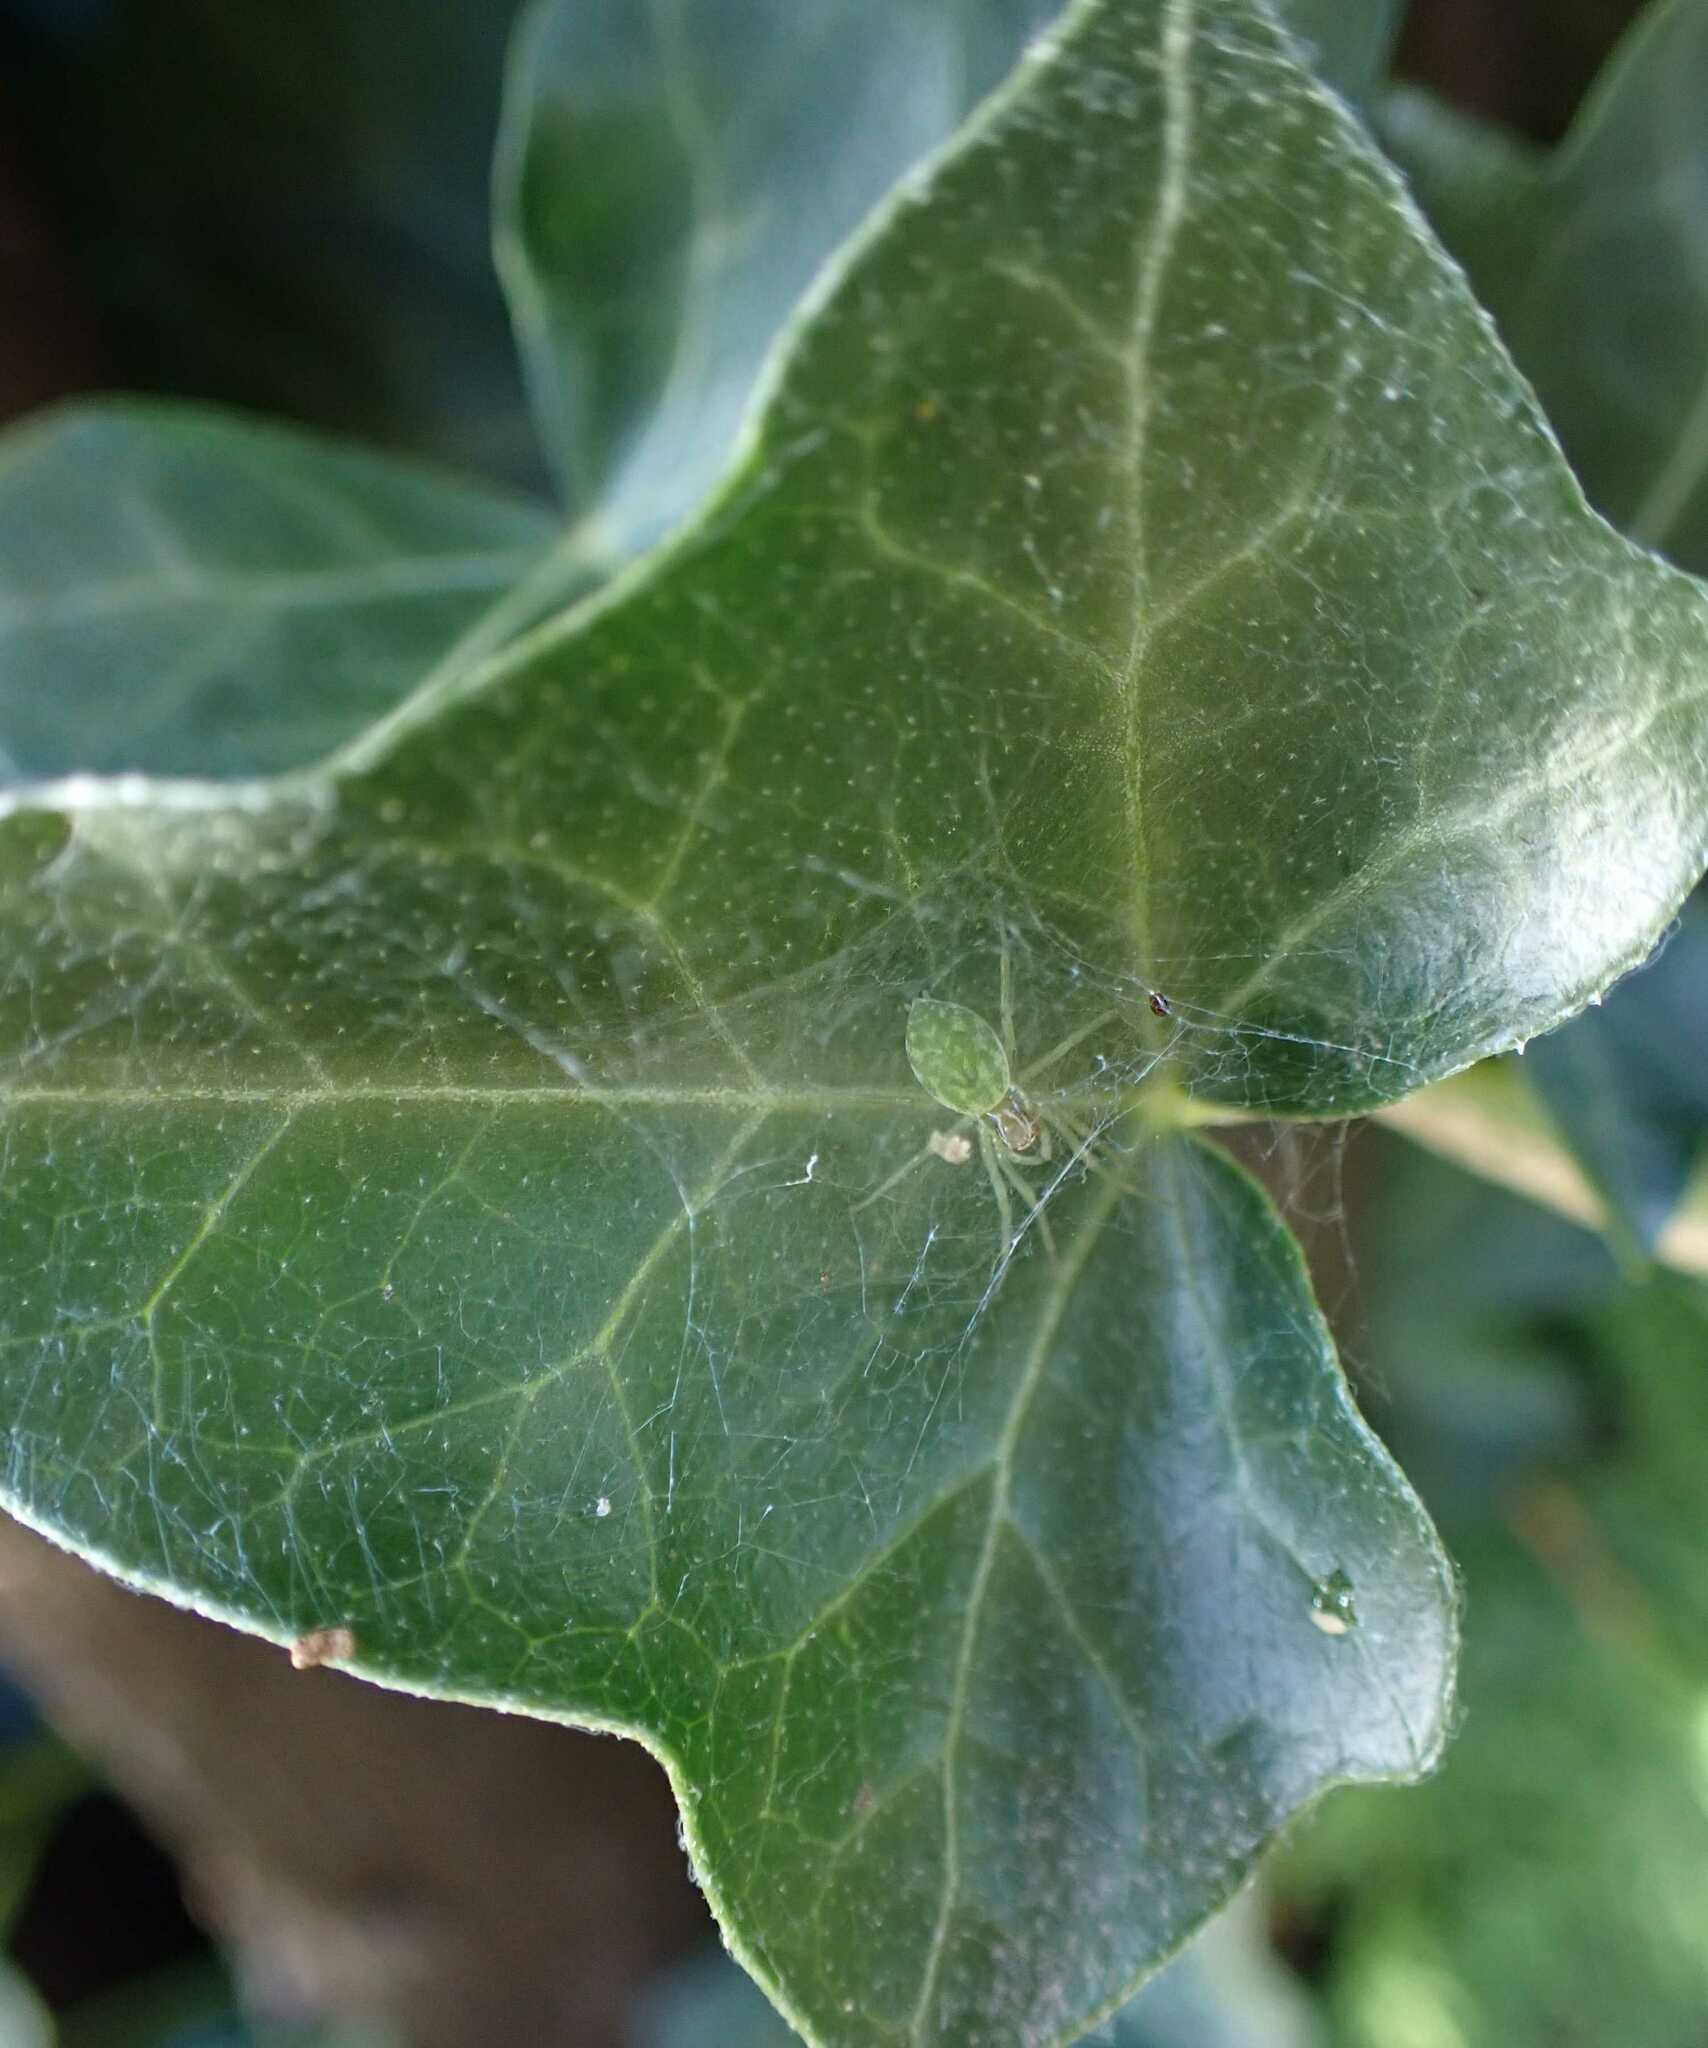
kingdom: Animalia
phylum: Arthropoda
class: Arachnida
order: Araneae
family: Dictynidae
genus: Nigma
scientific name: Nigma walckenaeri
